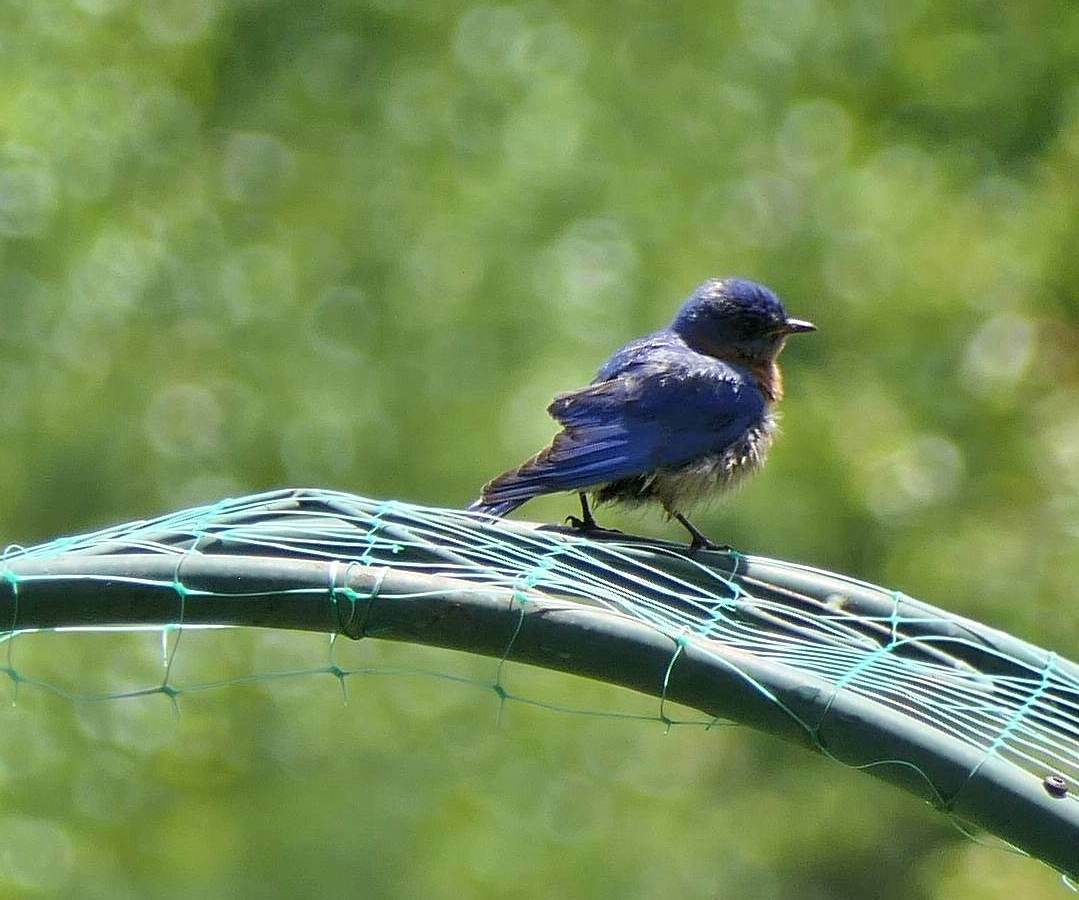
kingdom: Animalia
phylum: Chordata
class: Aves
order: Passeriformes
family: Turdidae
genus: Sialia
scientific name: Sialia sialis
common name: Eastern bluebird
